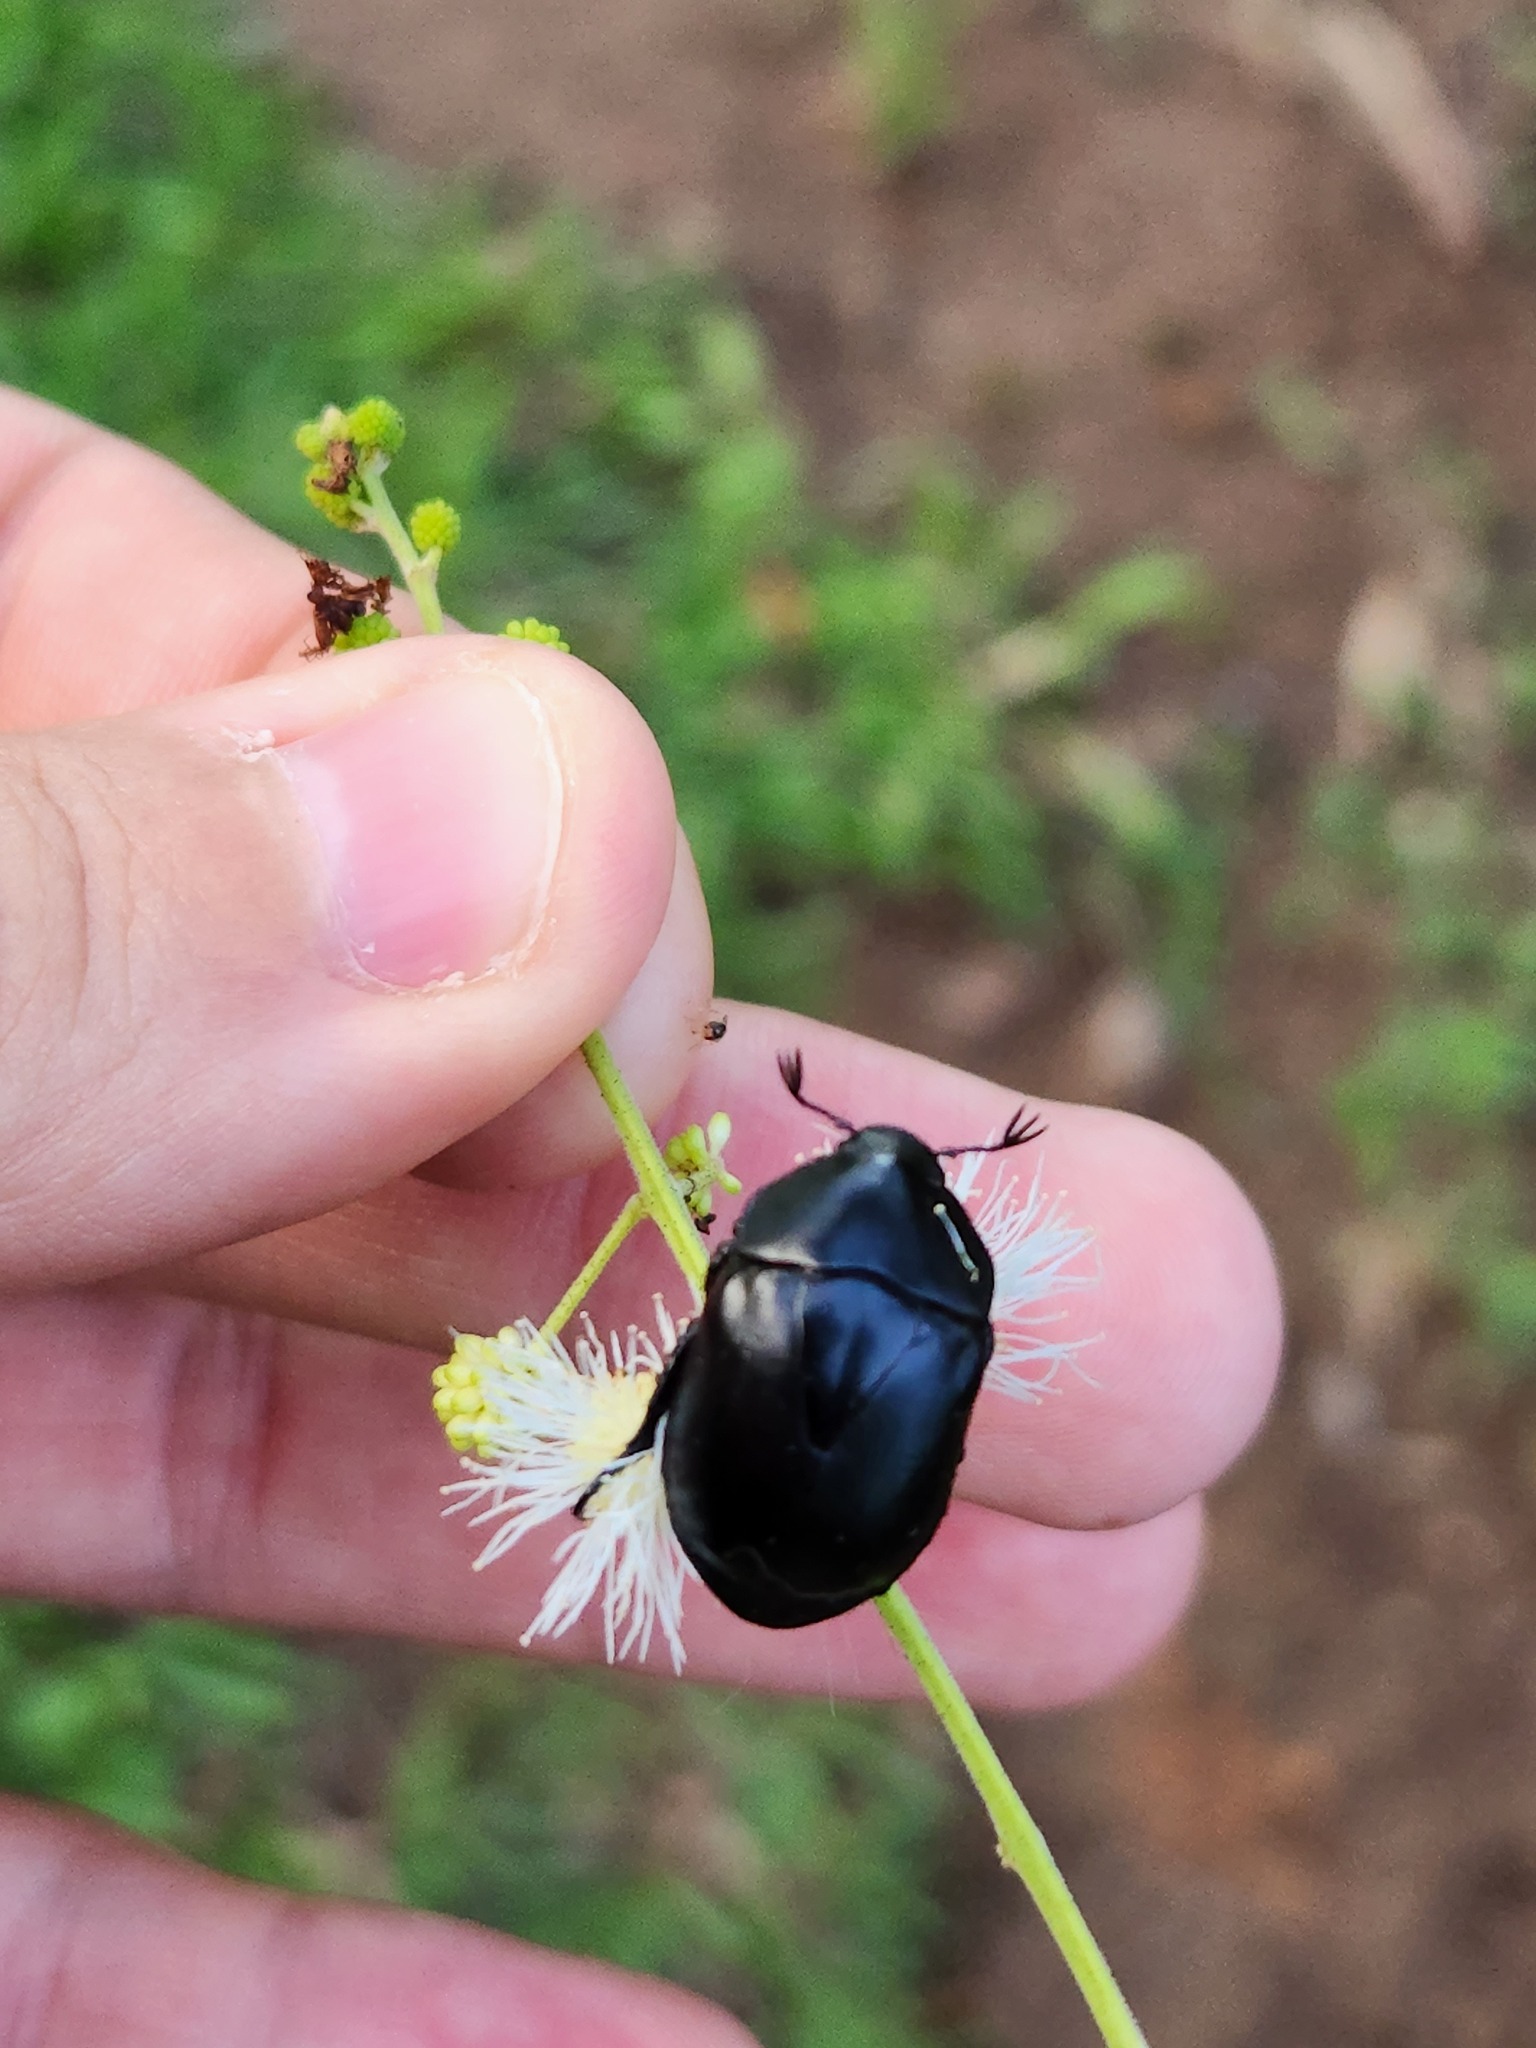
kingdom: Animalia
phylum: Arthropoda
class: Insecta
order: Coleoptera
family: Scarabaeidae
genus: Macraspis
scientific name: Macraspis morio
